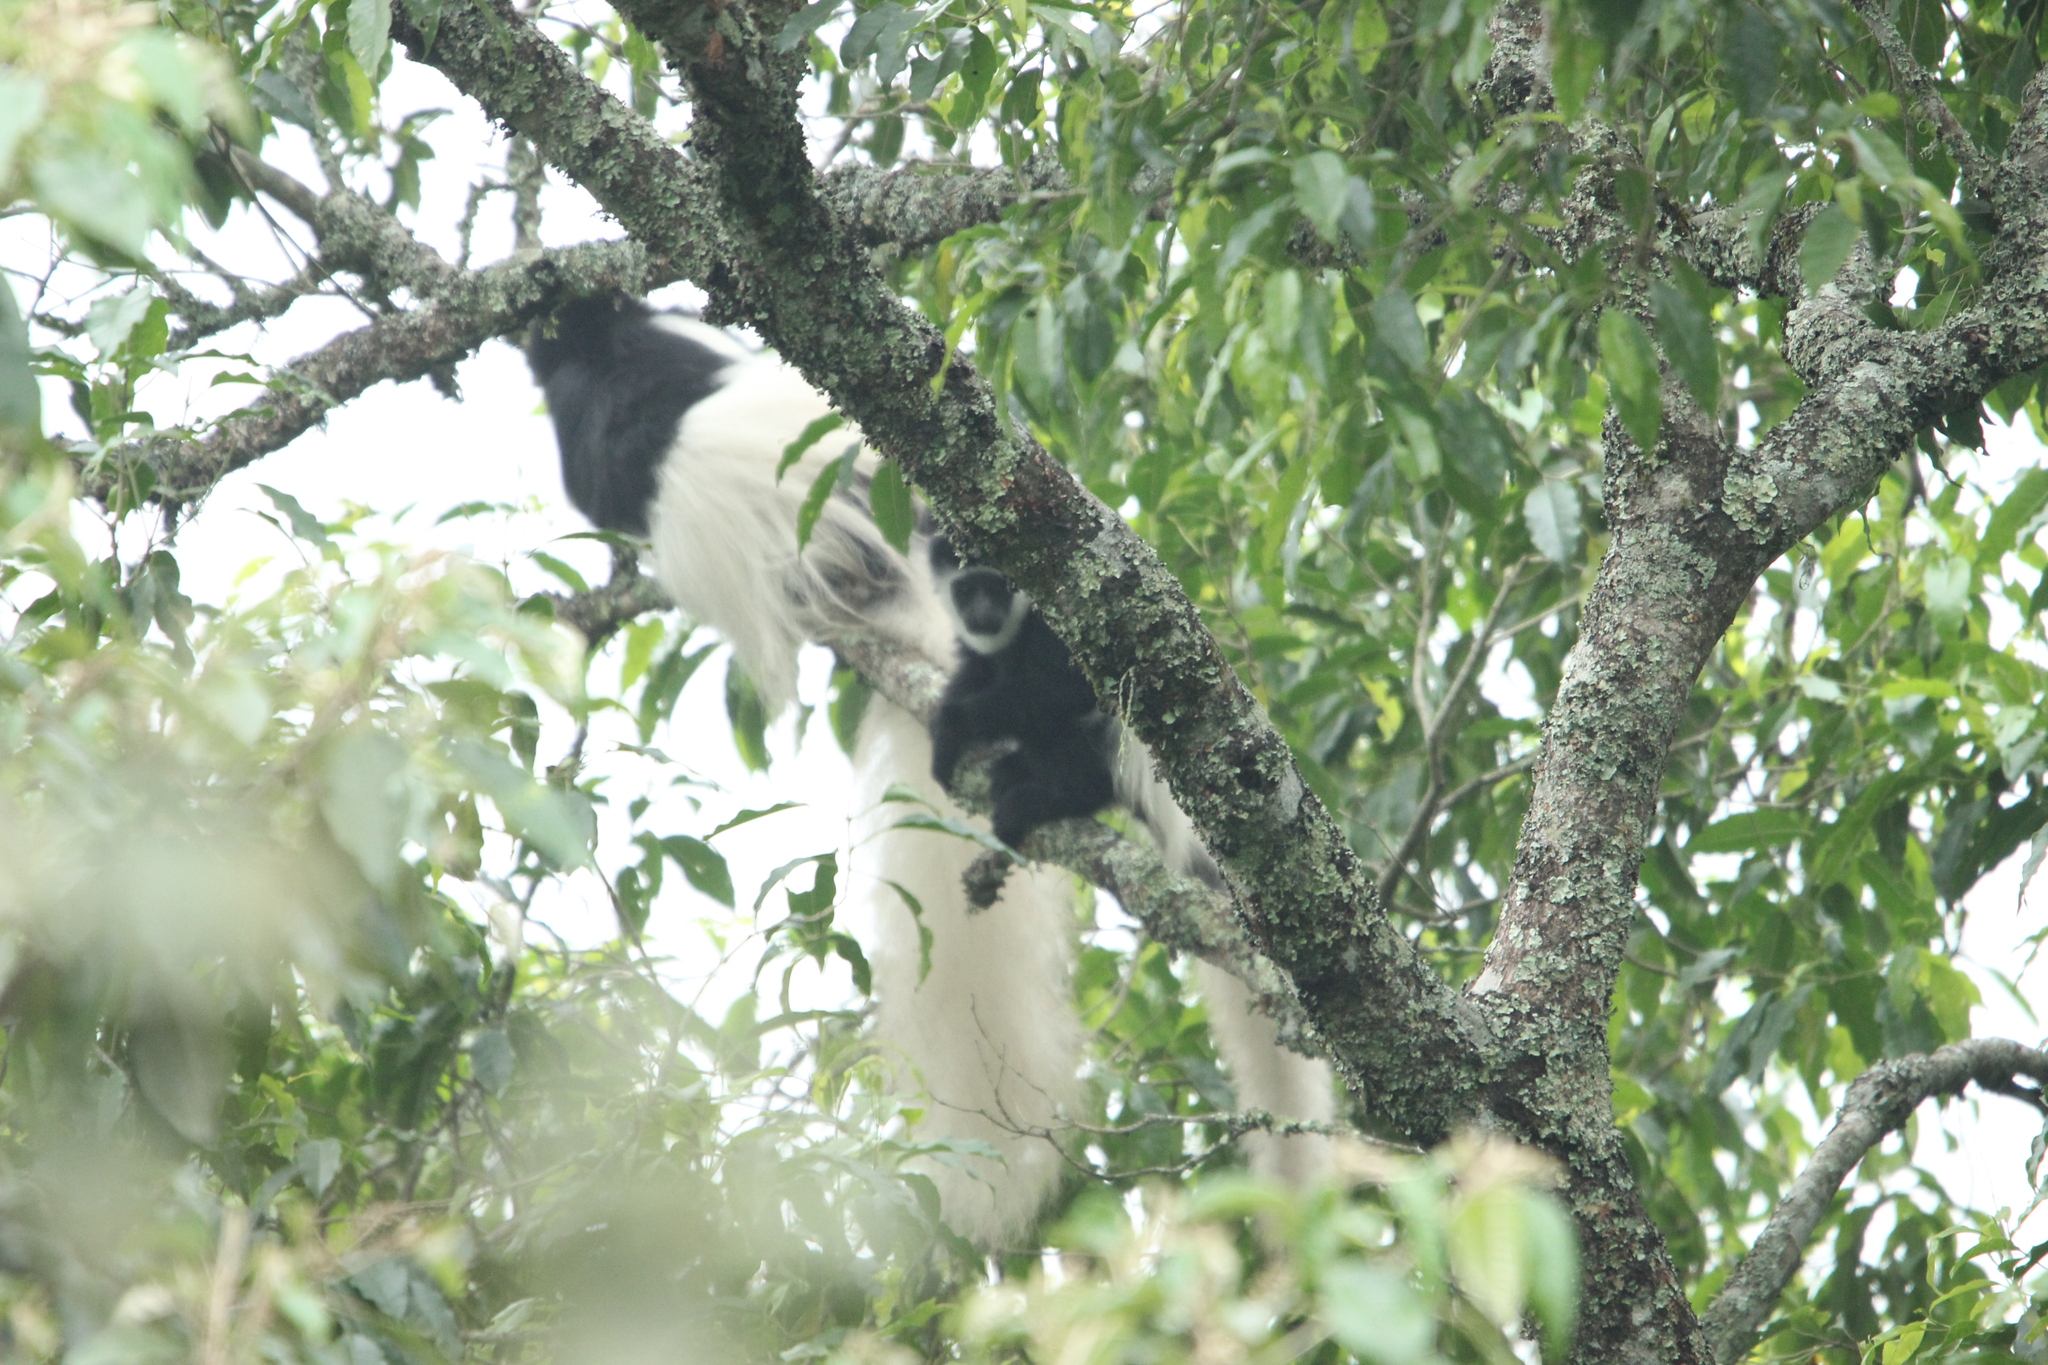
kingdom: Animalia
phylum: Chordata
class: Mammalia
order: Primates
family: Cercopithecidae
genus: Colobus
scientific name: Colobus caudatus
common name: Mount kilimanjaro guereza
